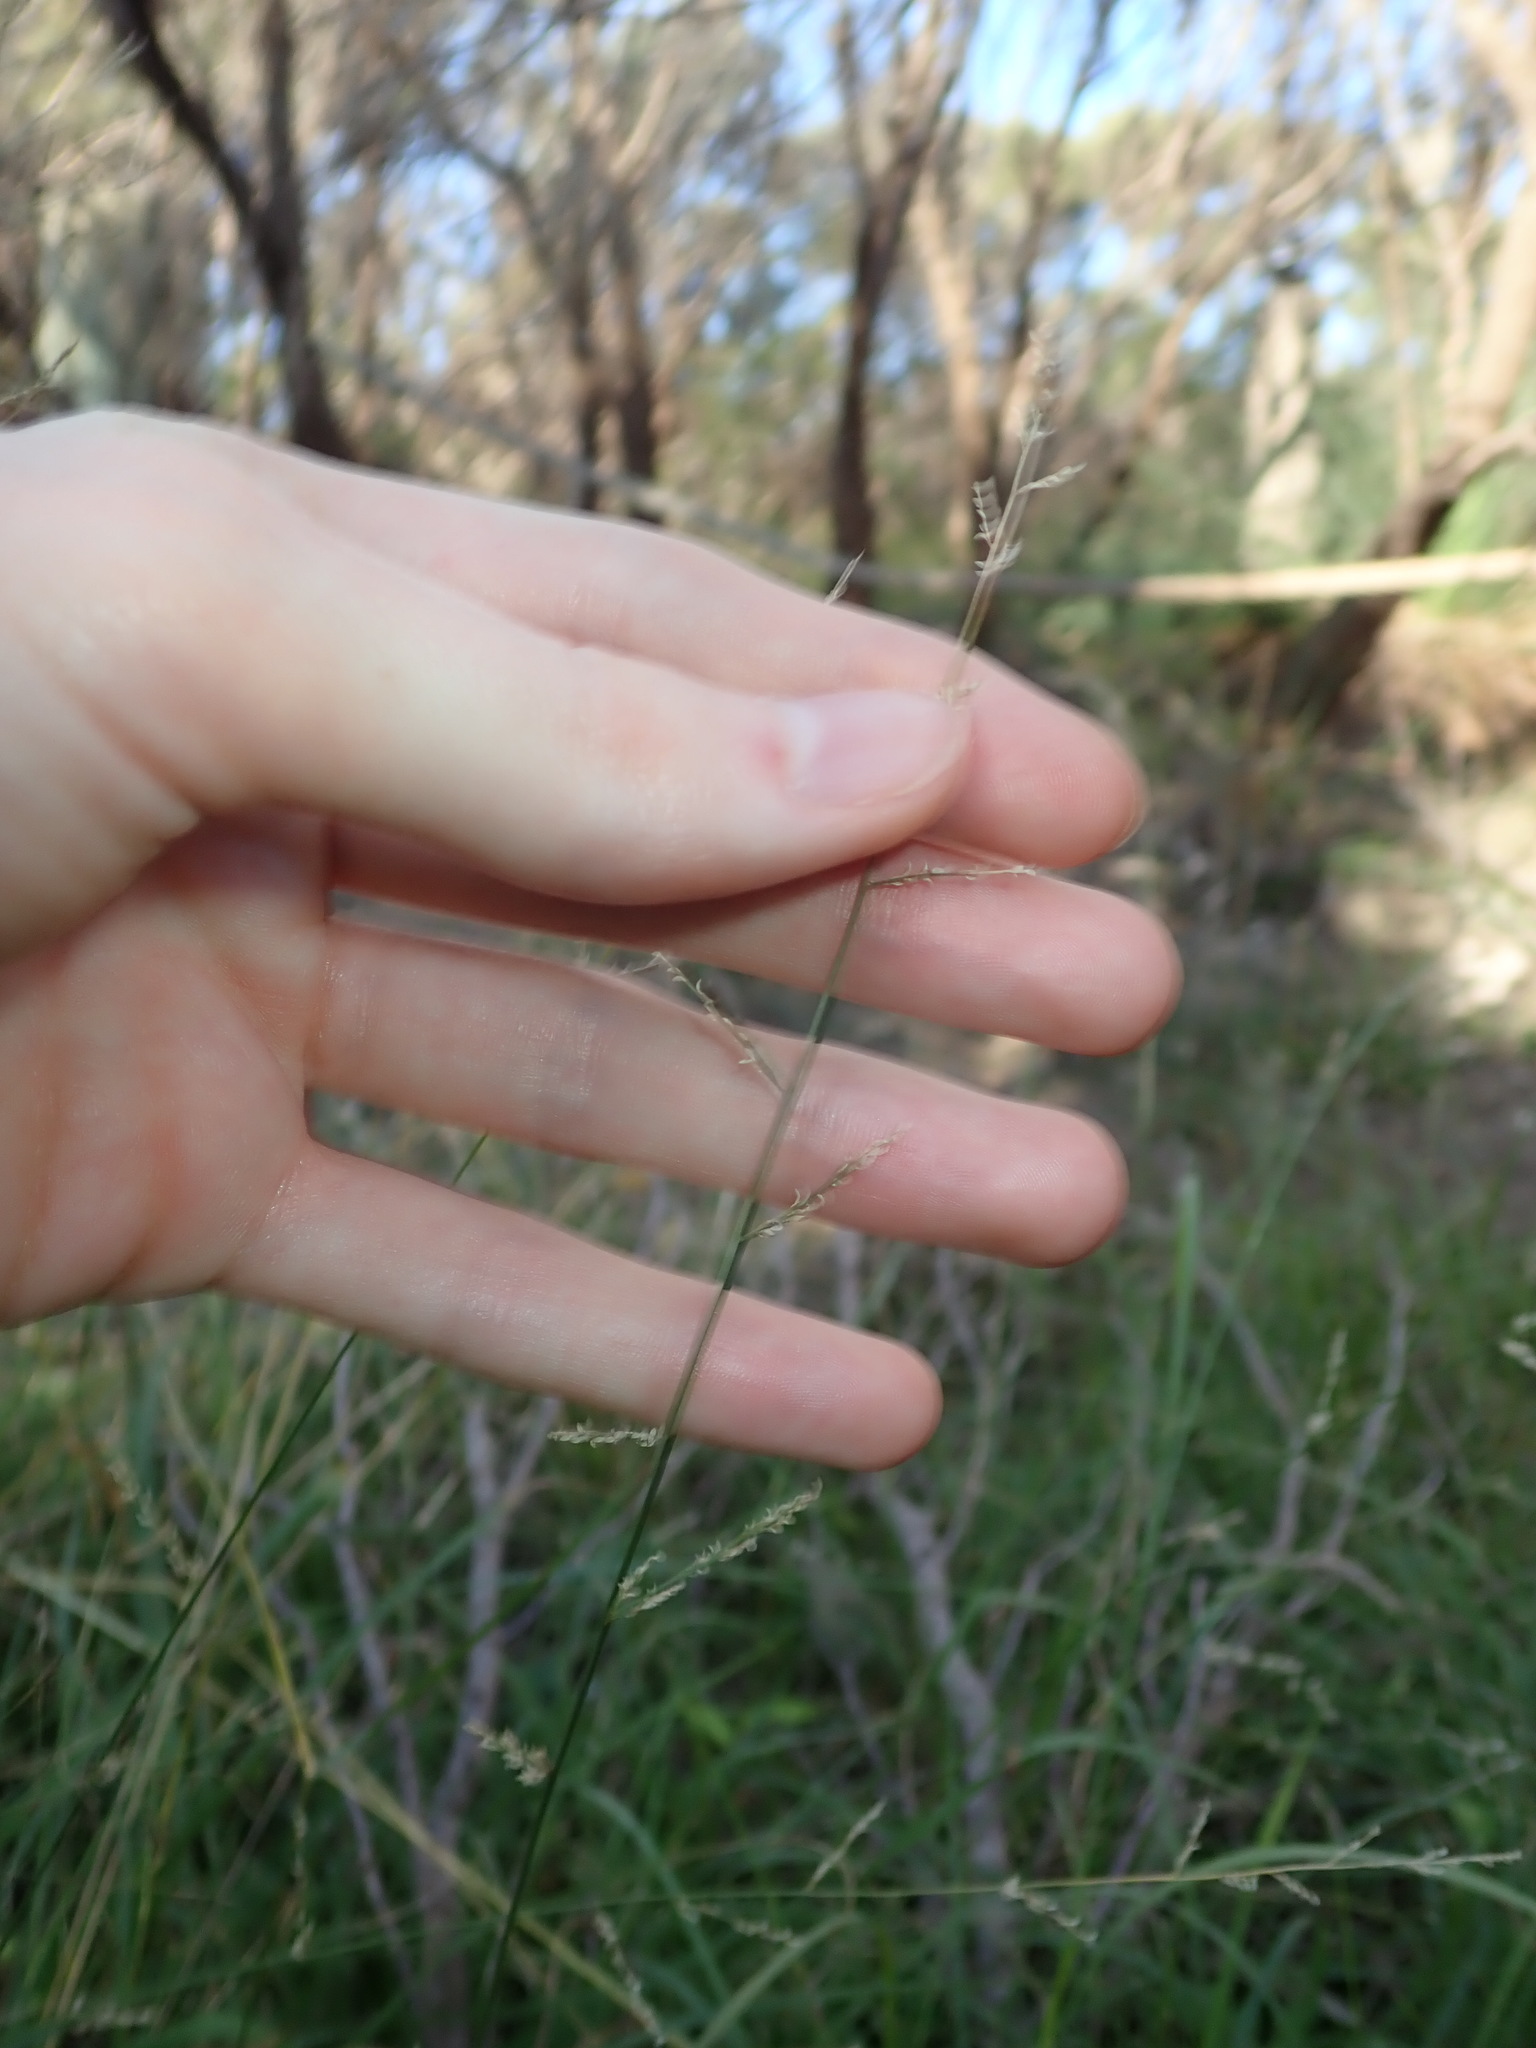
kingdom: Plantae
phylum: Tracheophyta
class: Liliopsida
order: Poales
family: Poaceae
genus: Eragrostis
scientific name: Eragrostis
